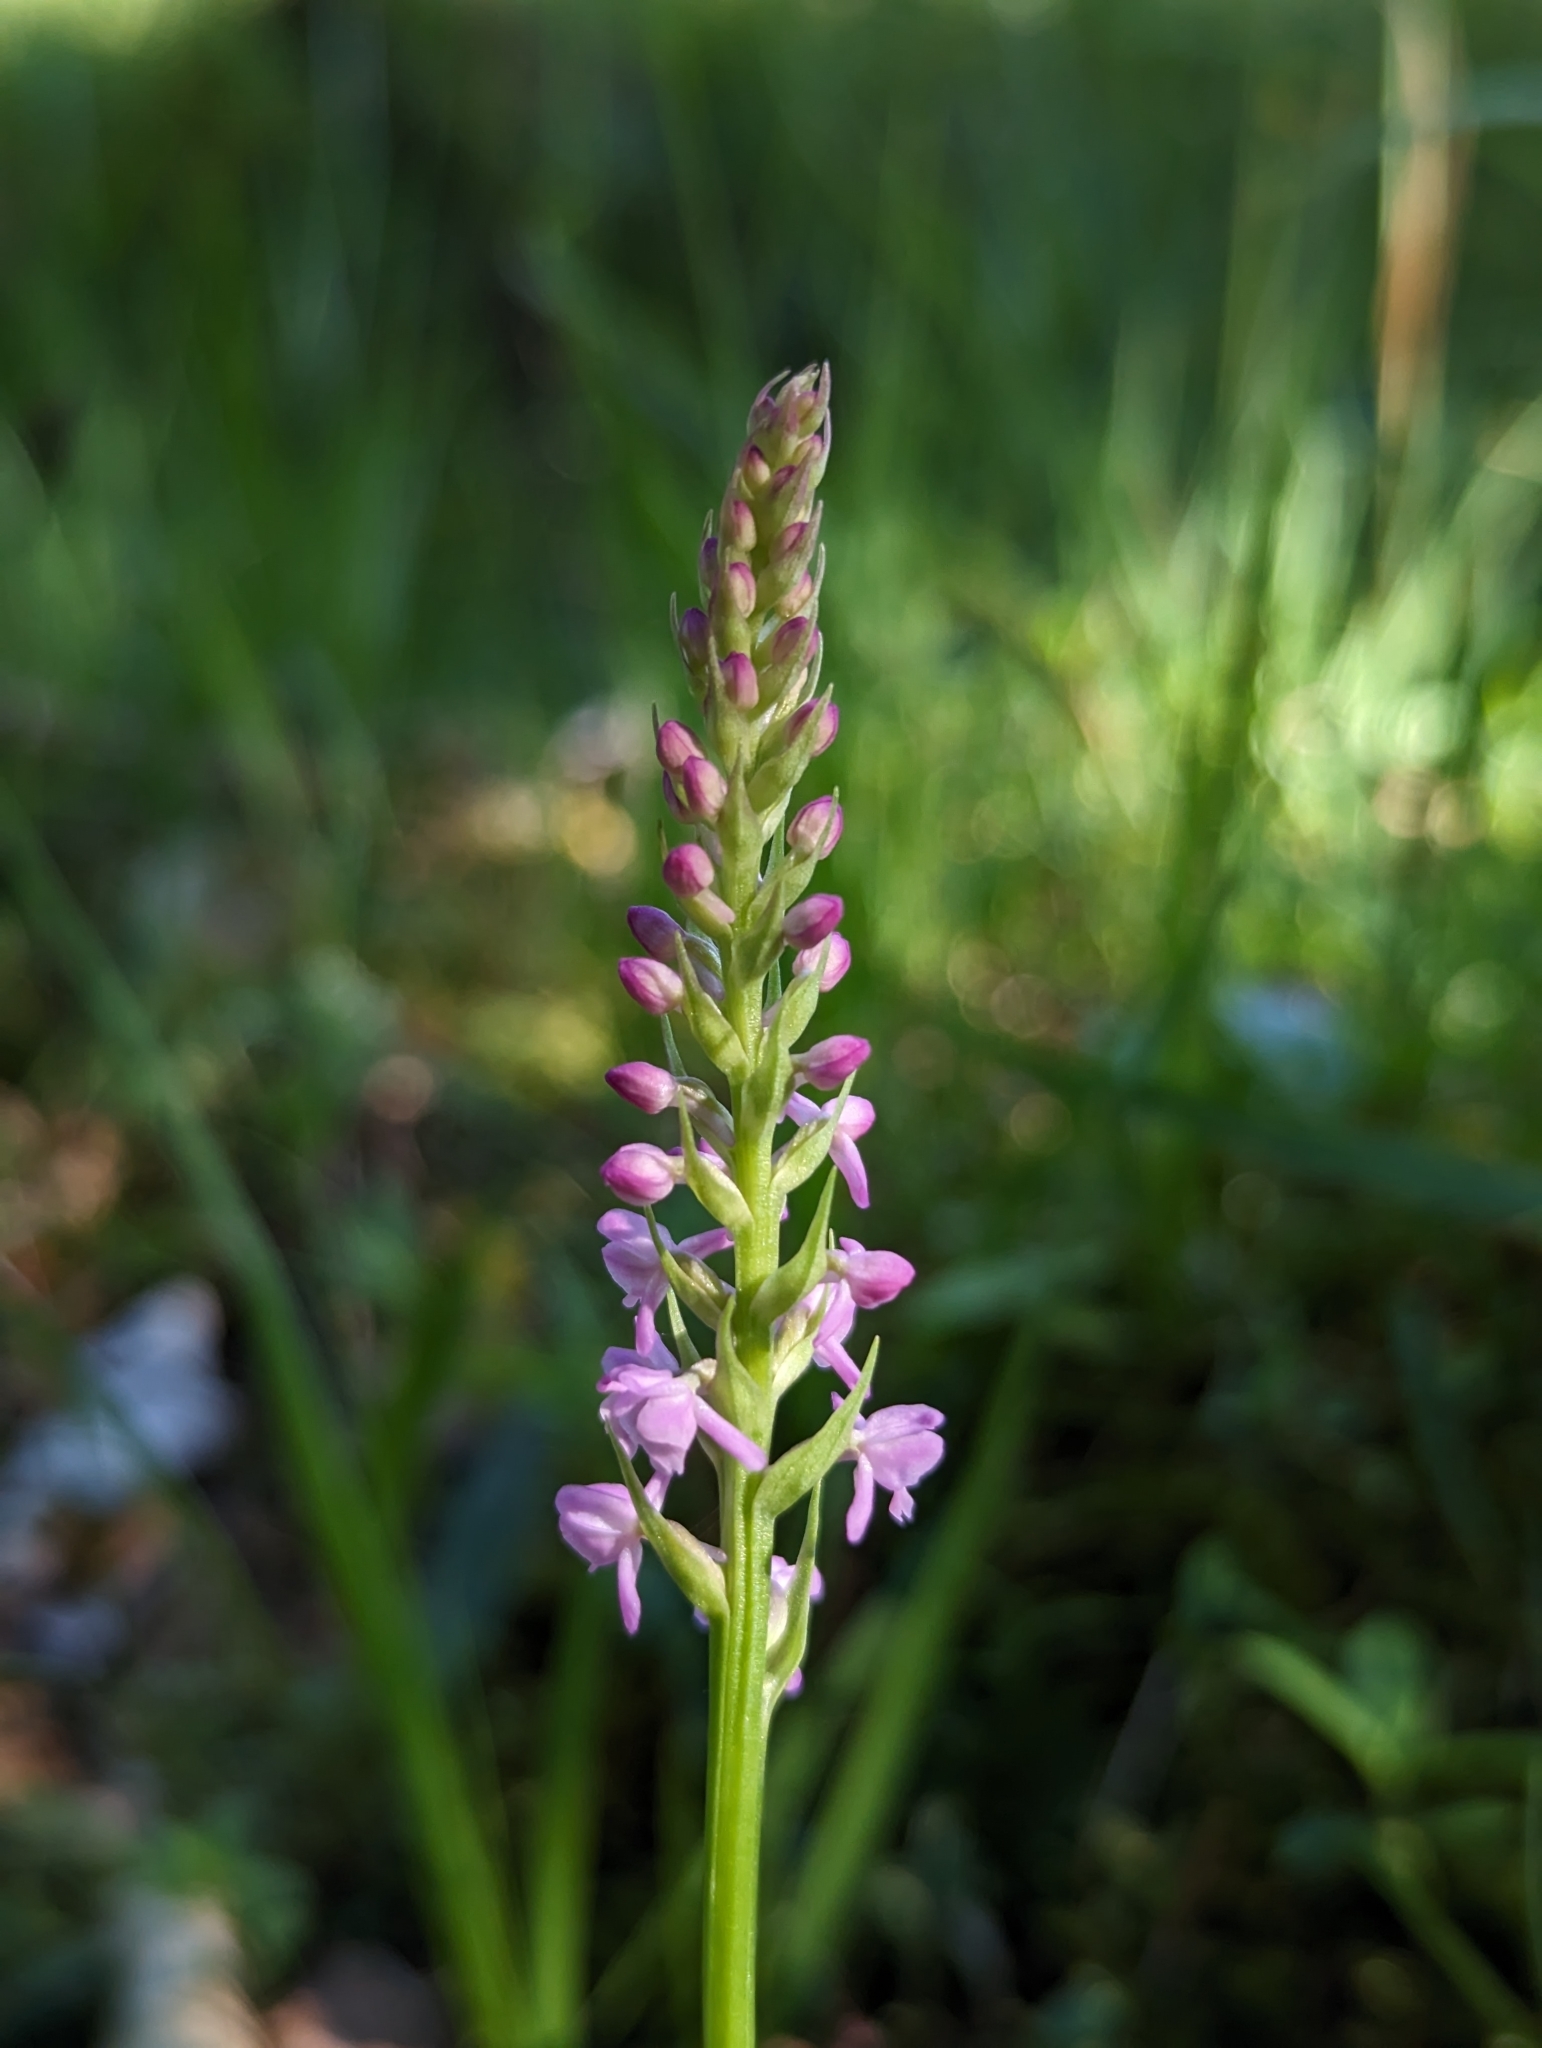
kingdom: Plantae
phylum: Tracheophyta
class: Liliopsida
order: Asparagales
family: Orchidaceae
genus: Gymnadenia
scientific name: Gymnadenia odoratissima
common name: Scented gymnadenia
